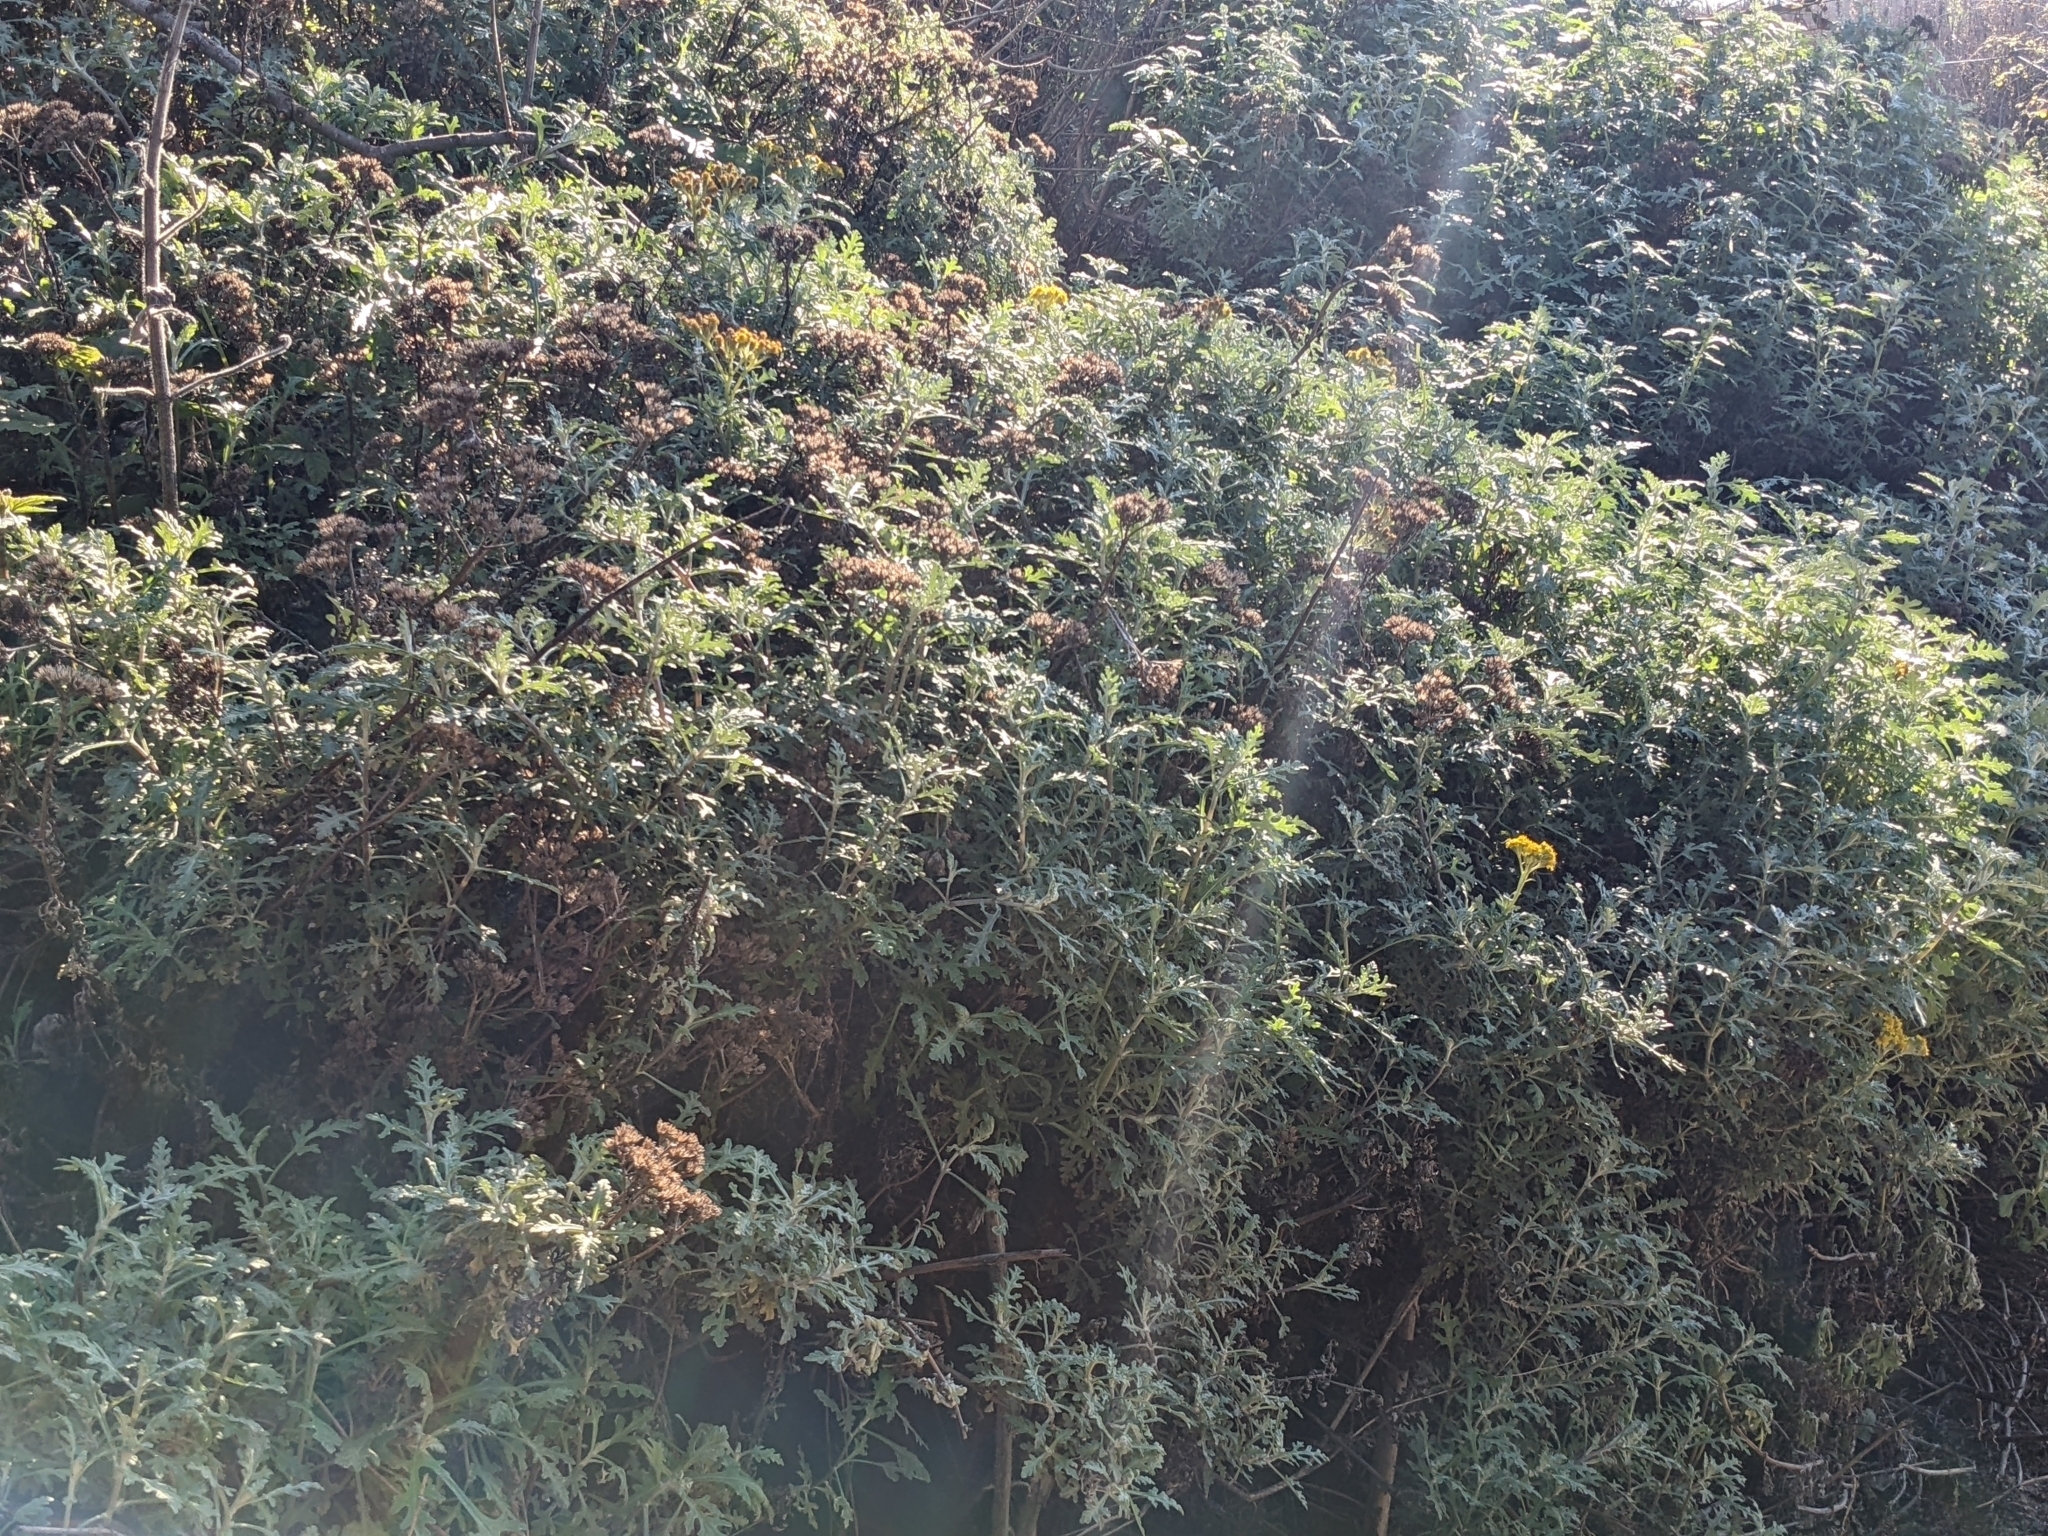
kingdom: Plantae
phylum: Tracheophyta
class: Magnoliopsida
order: Asterales
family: Asteraceae
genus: Eriophyllum
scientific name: Eriophyllum staechadifolium
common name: Lizardtail
